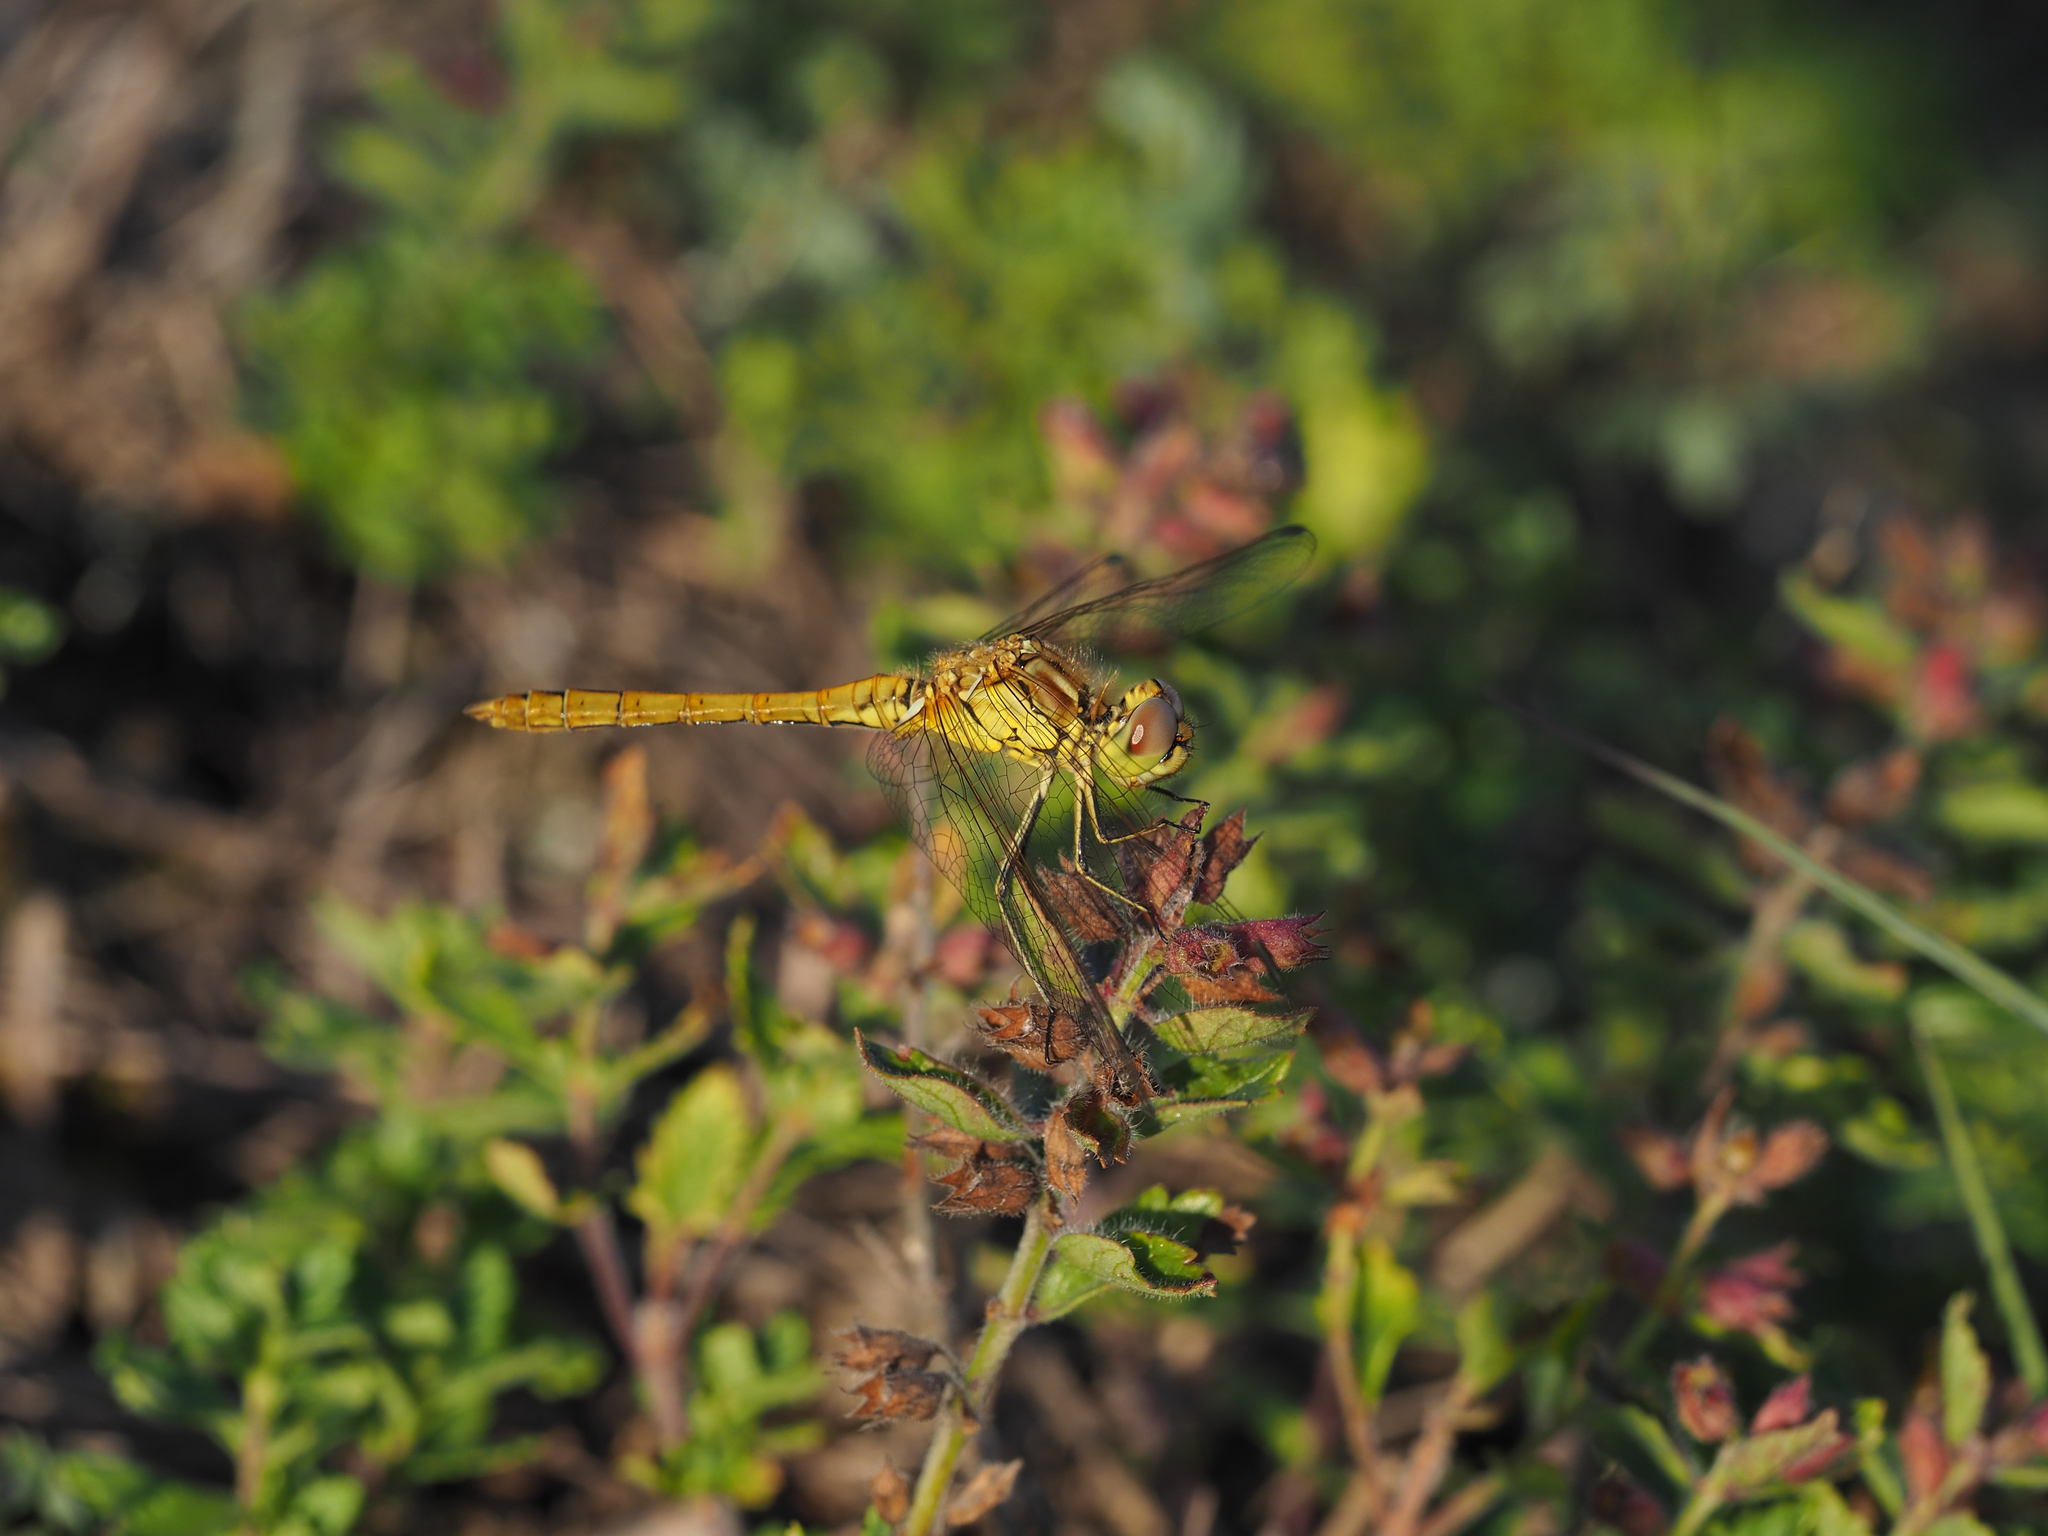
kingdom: Animalia
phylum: Arthropoda
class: Insecta
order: Odonata
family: Libellulidae
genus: Sympetrum
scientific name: Sympetrum vulgatum
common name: Vagrant darter
